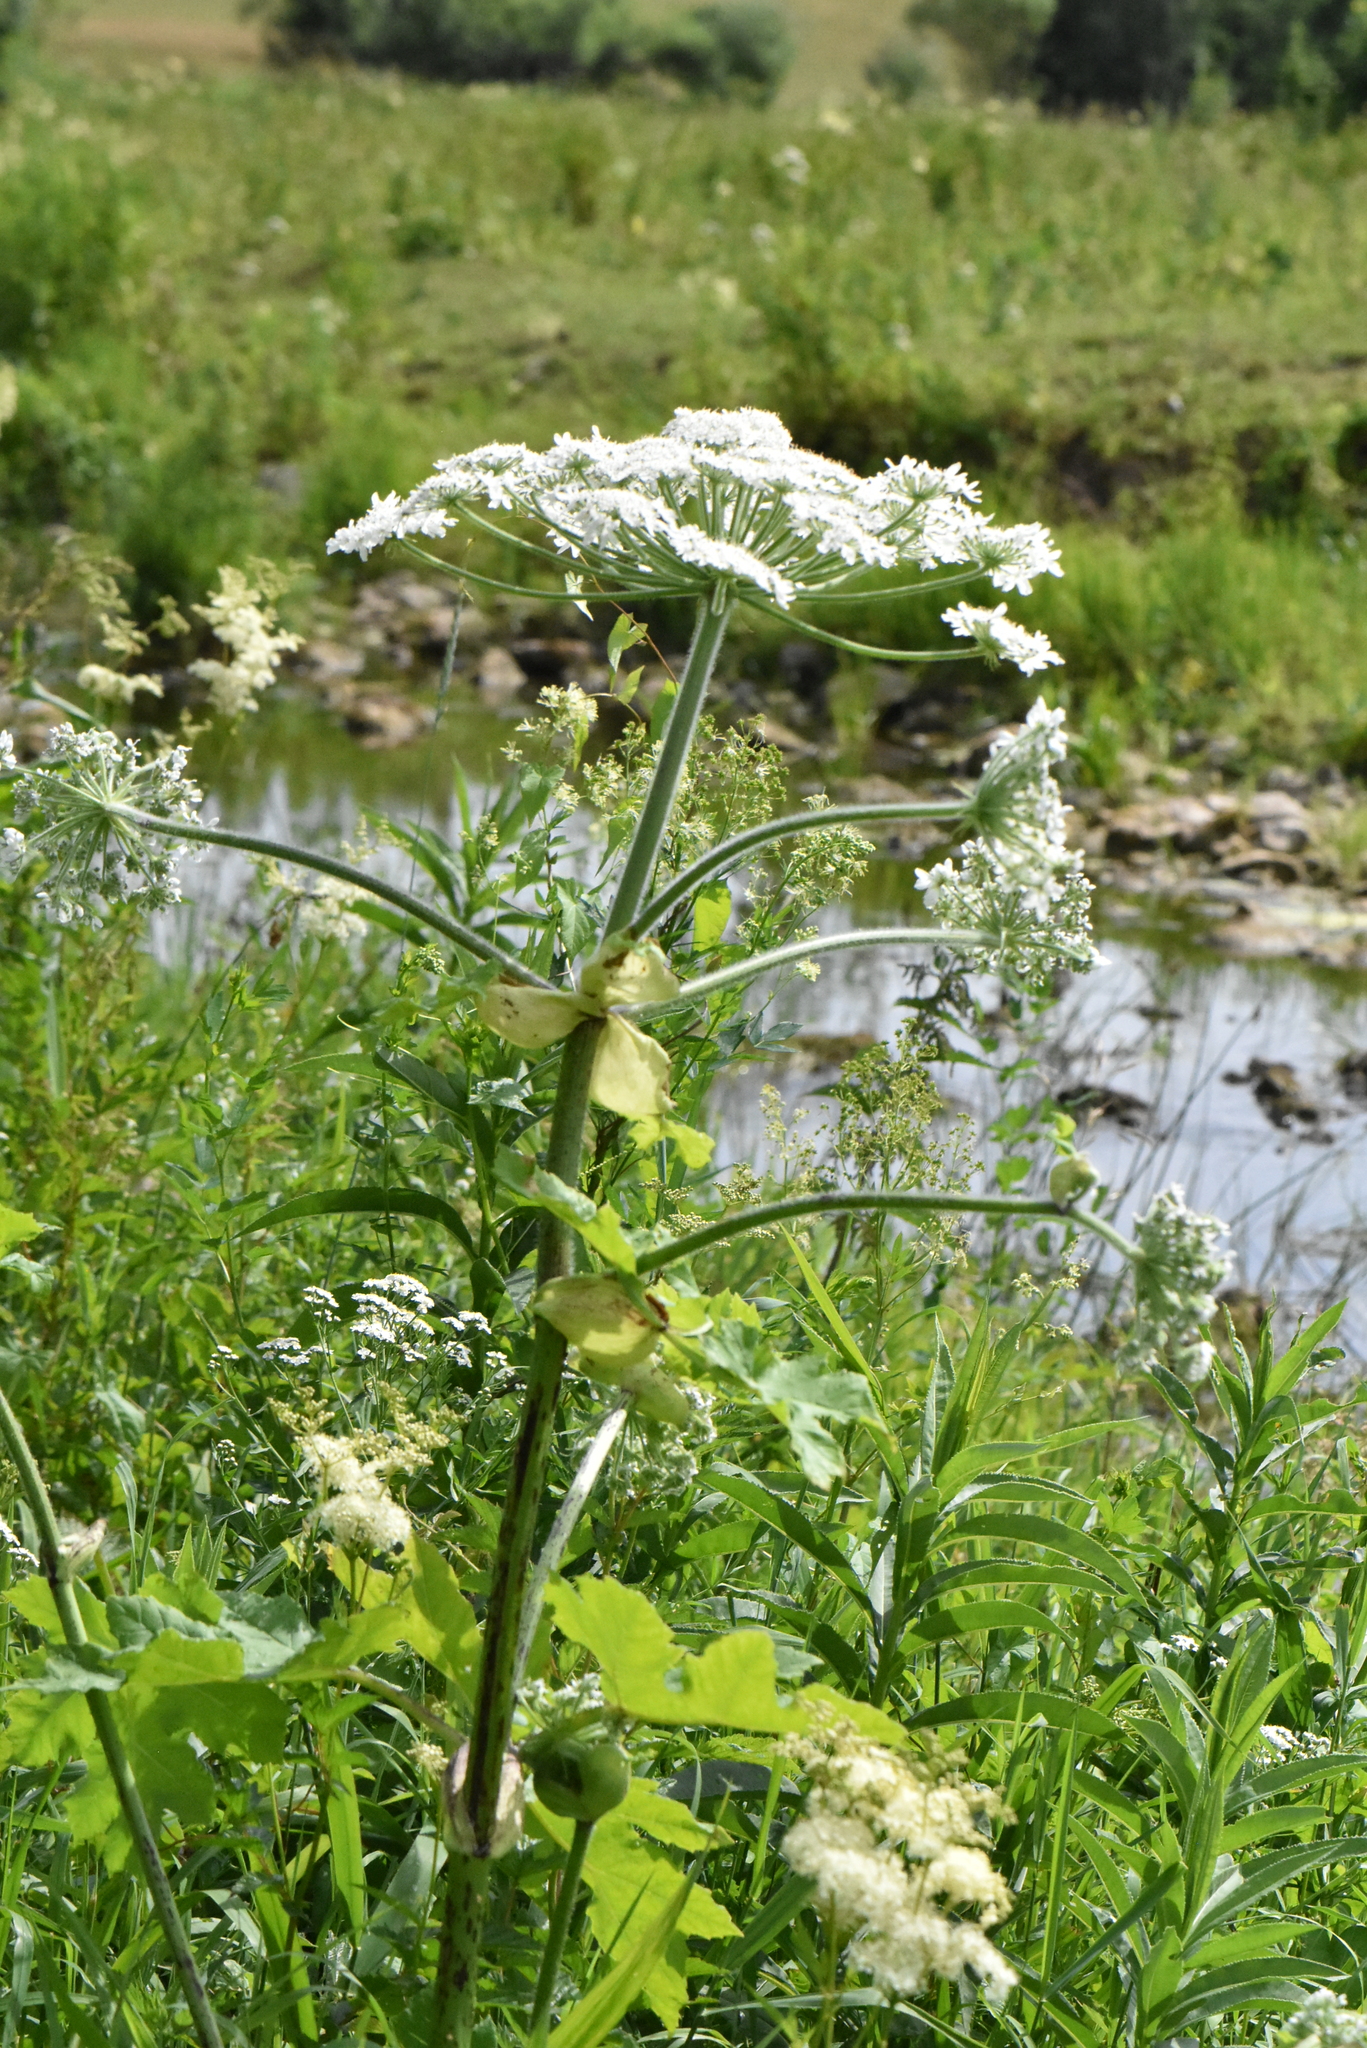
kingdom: Plantae
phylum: Tracheophyta
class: Magnoliopsida
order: Apiales
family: Apiaceae
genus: Heracleum
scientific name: Heracleum sosnowskyi
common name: Sosnowsky's hogweed
